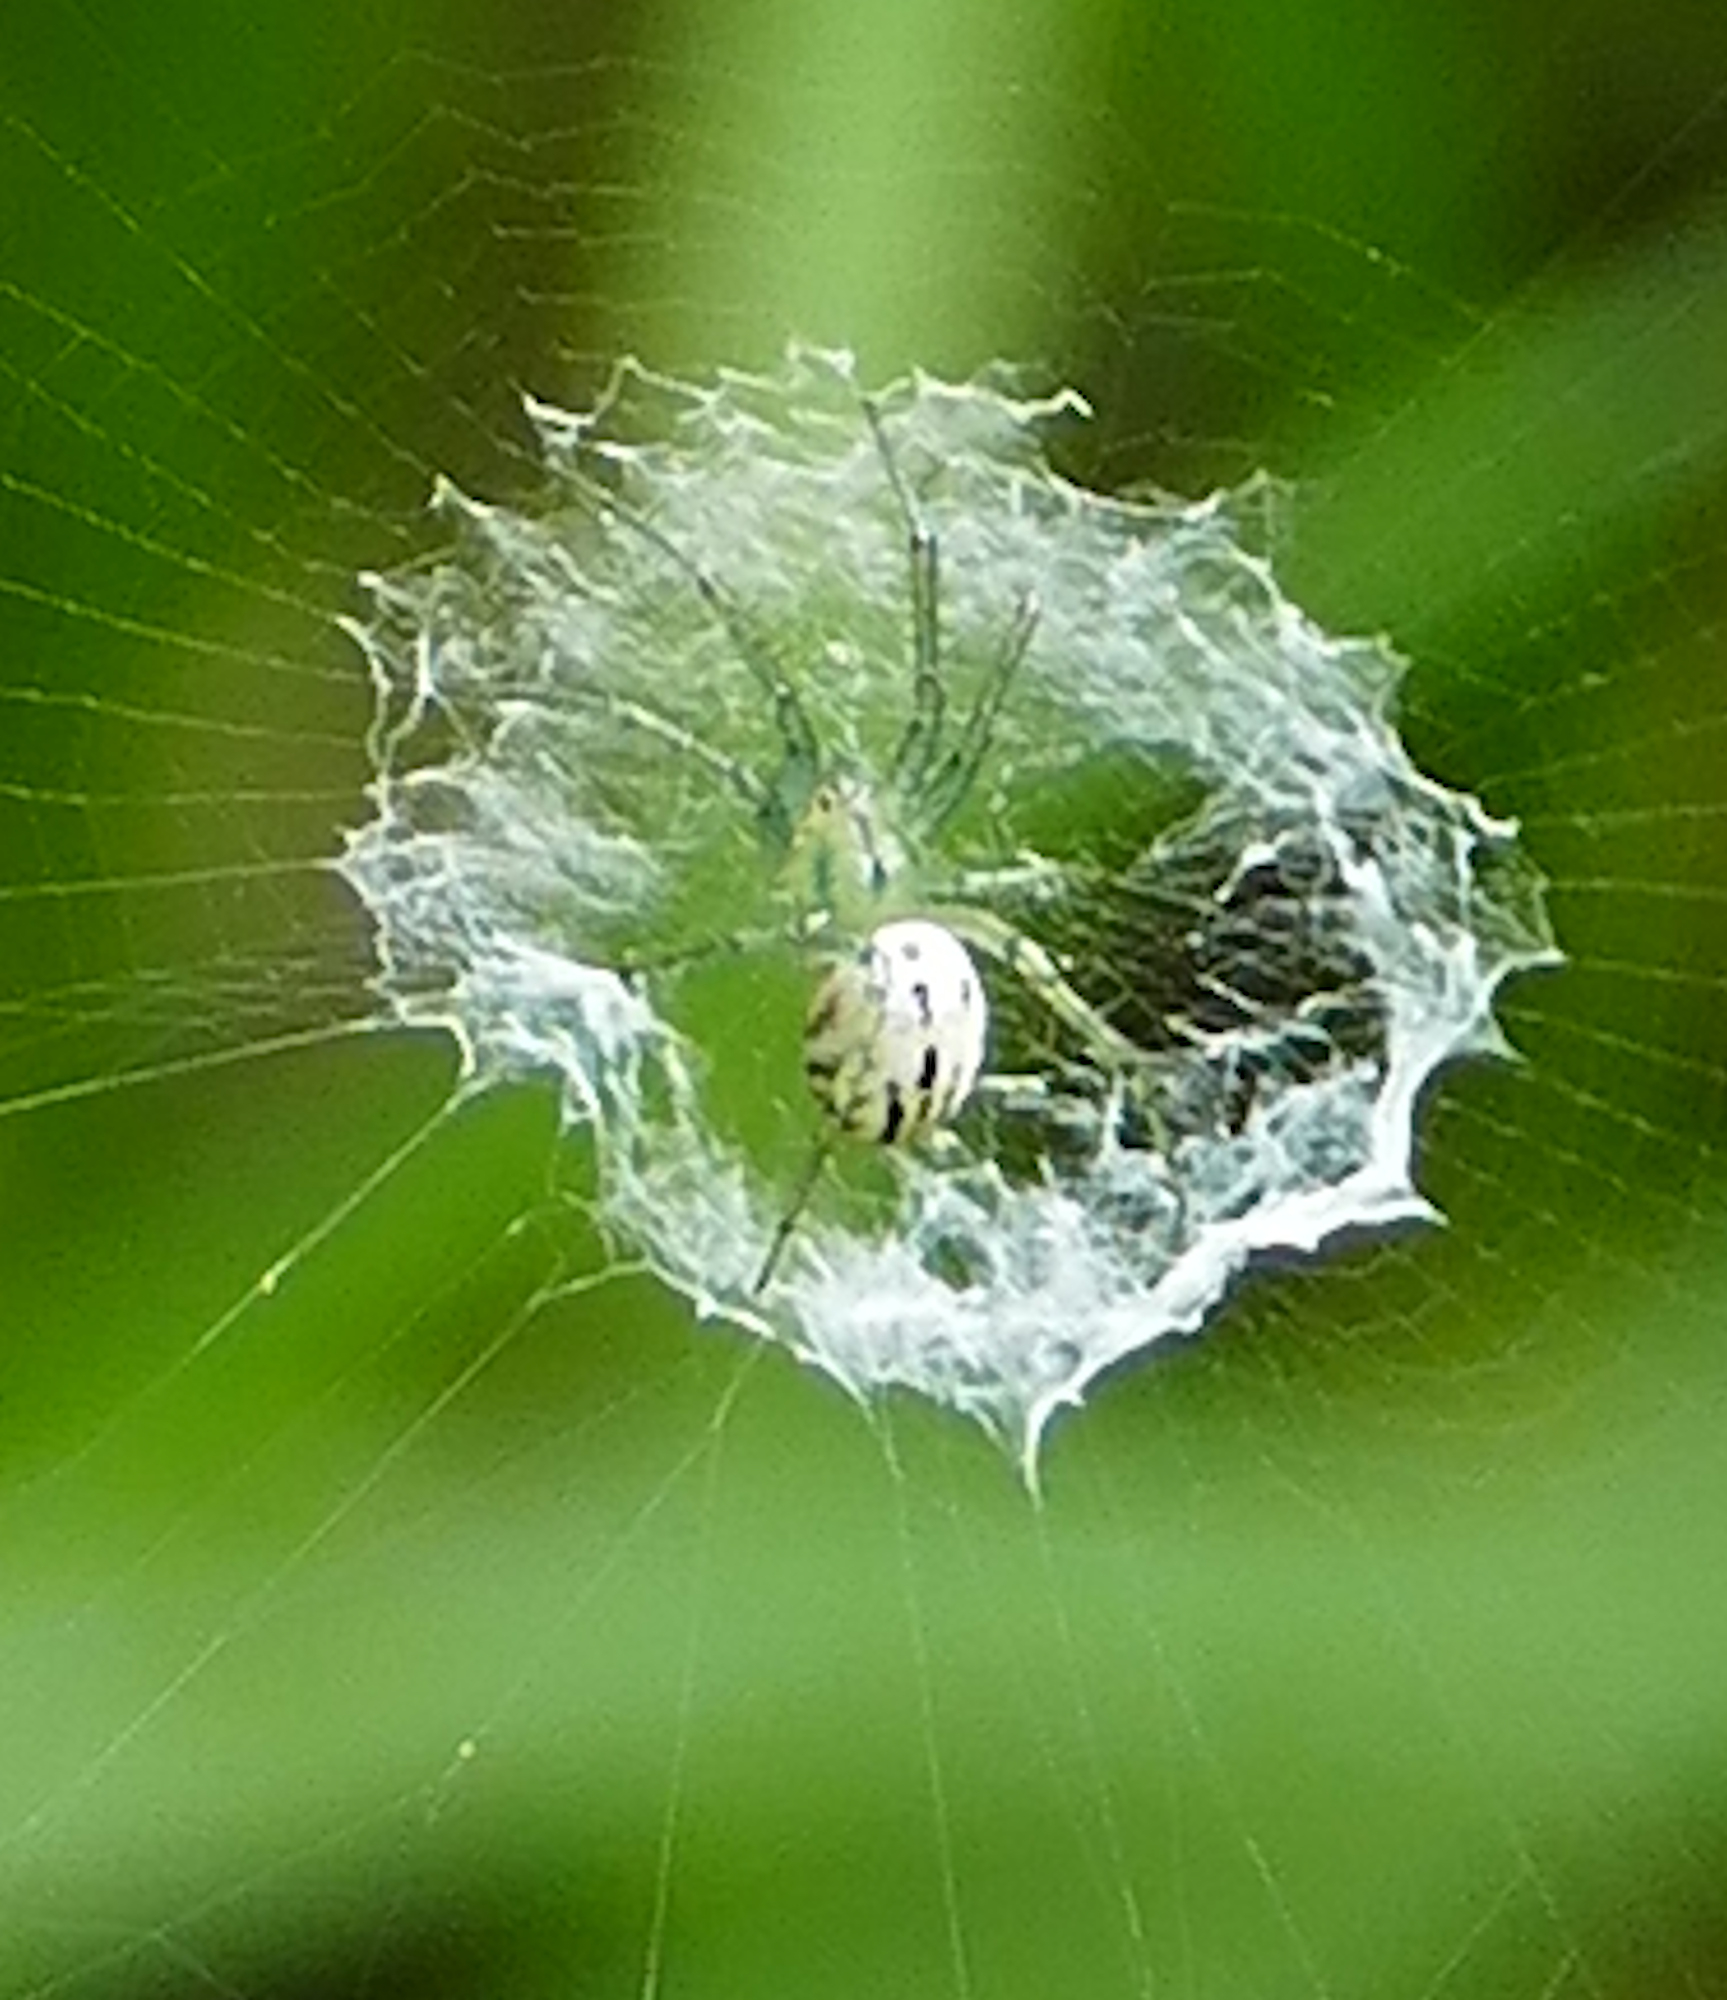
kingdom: Animalia
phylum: Arthropoda
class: Arachnida
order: Araneae
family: Araneidae
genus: Mangora
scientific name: Mangora gibberosa
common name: Lined orbweaver
